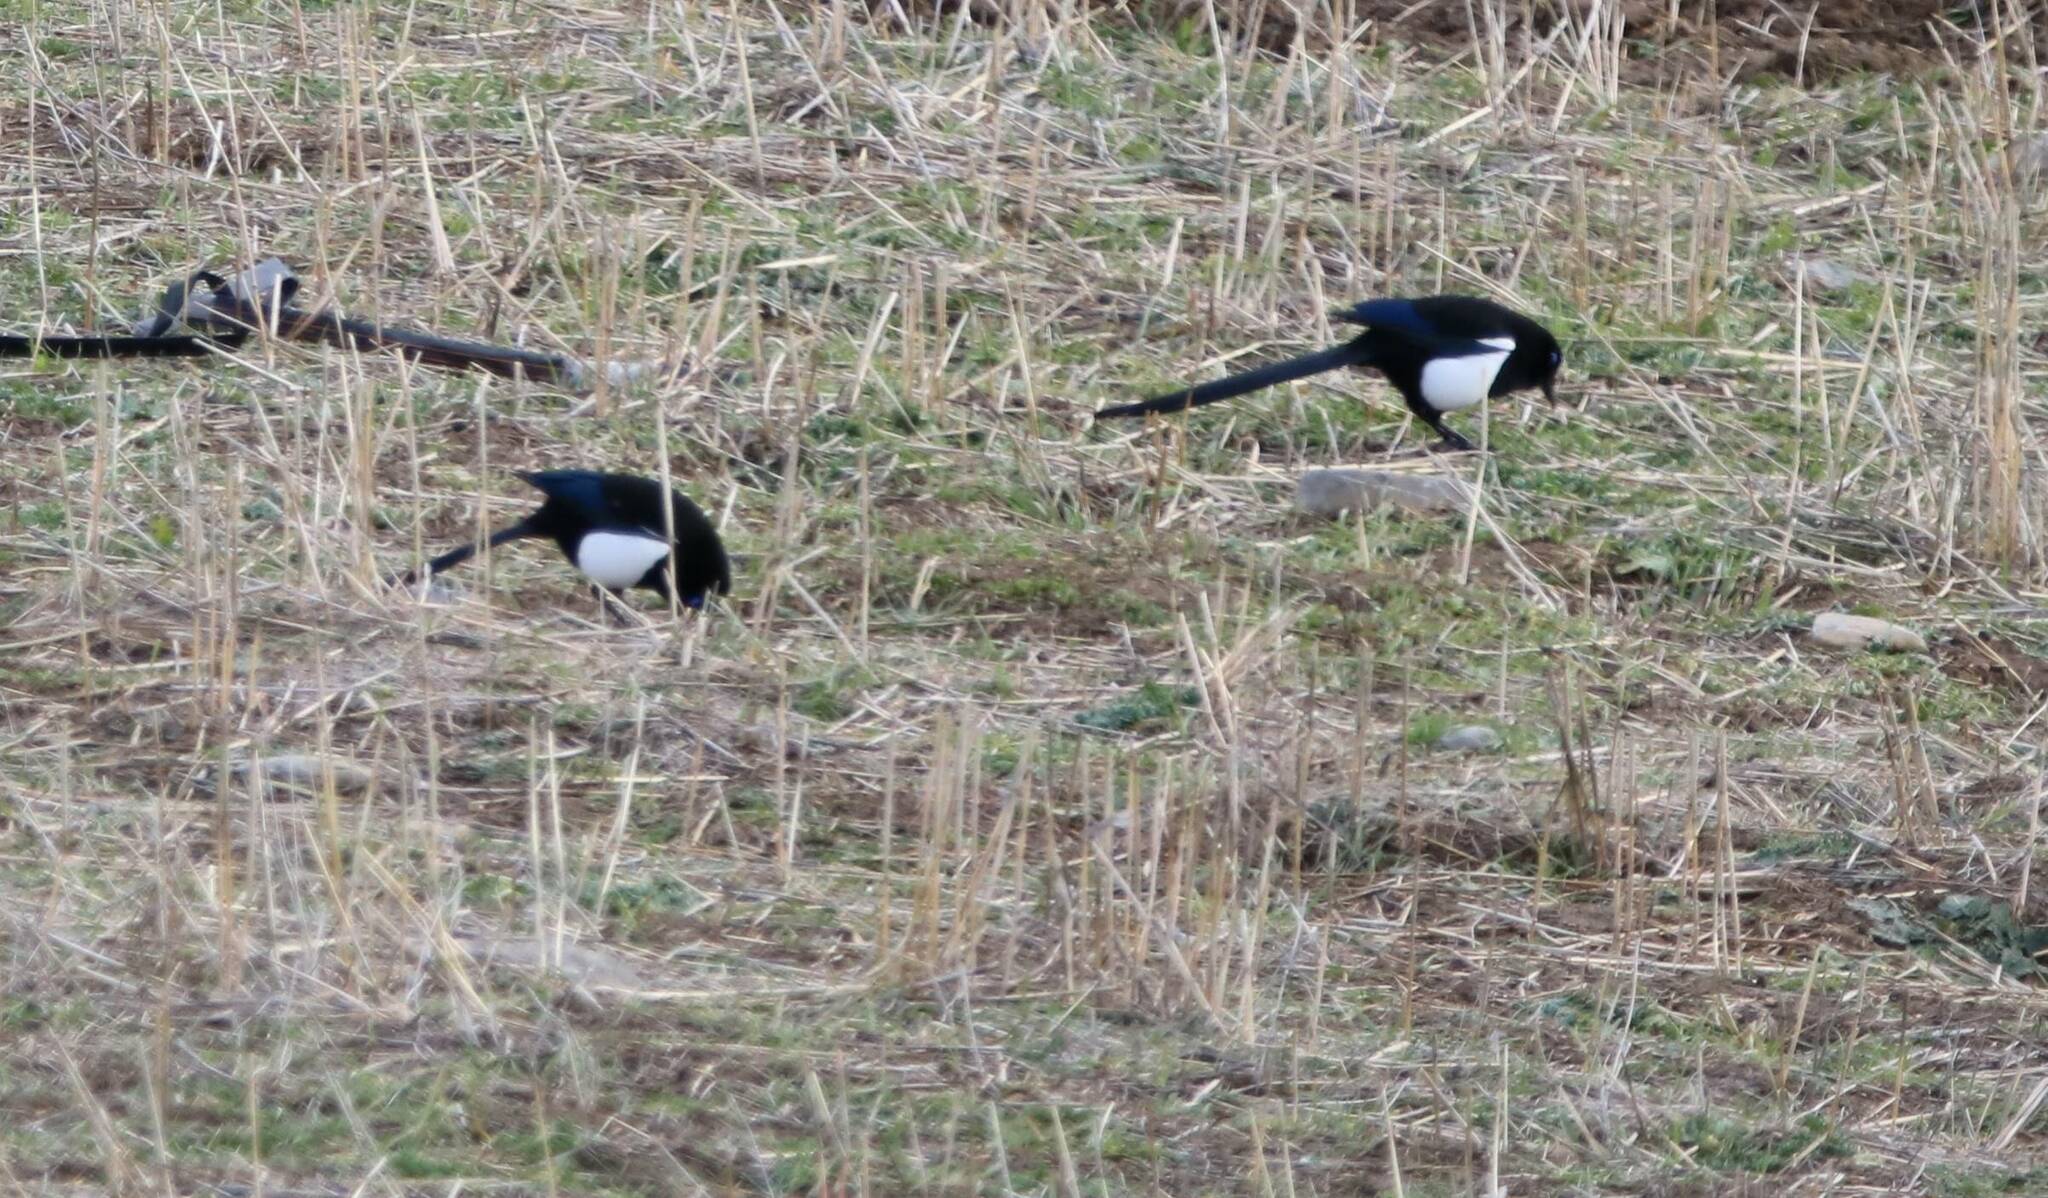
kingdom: Animalia
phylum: Chordata
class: Aves
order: Passeriformes
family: Corvidae
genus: Pica
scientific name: Pica mauritanica
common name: Maghreb magpie
